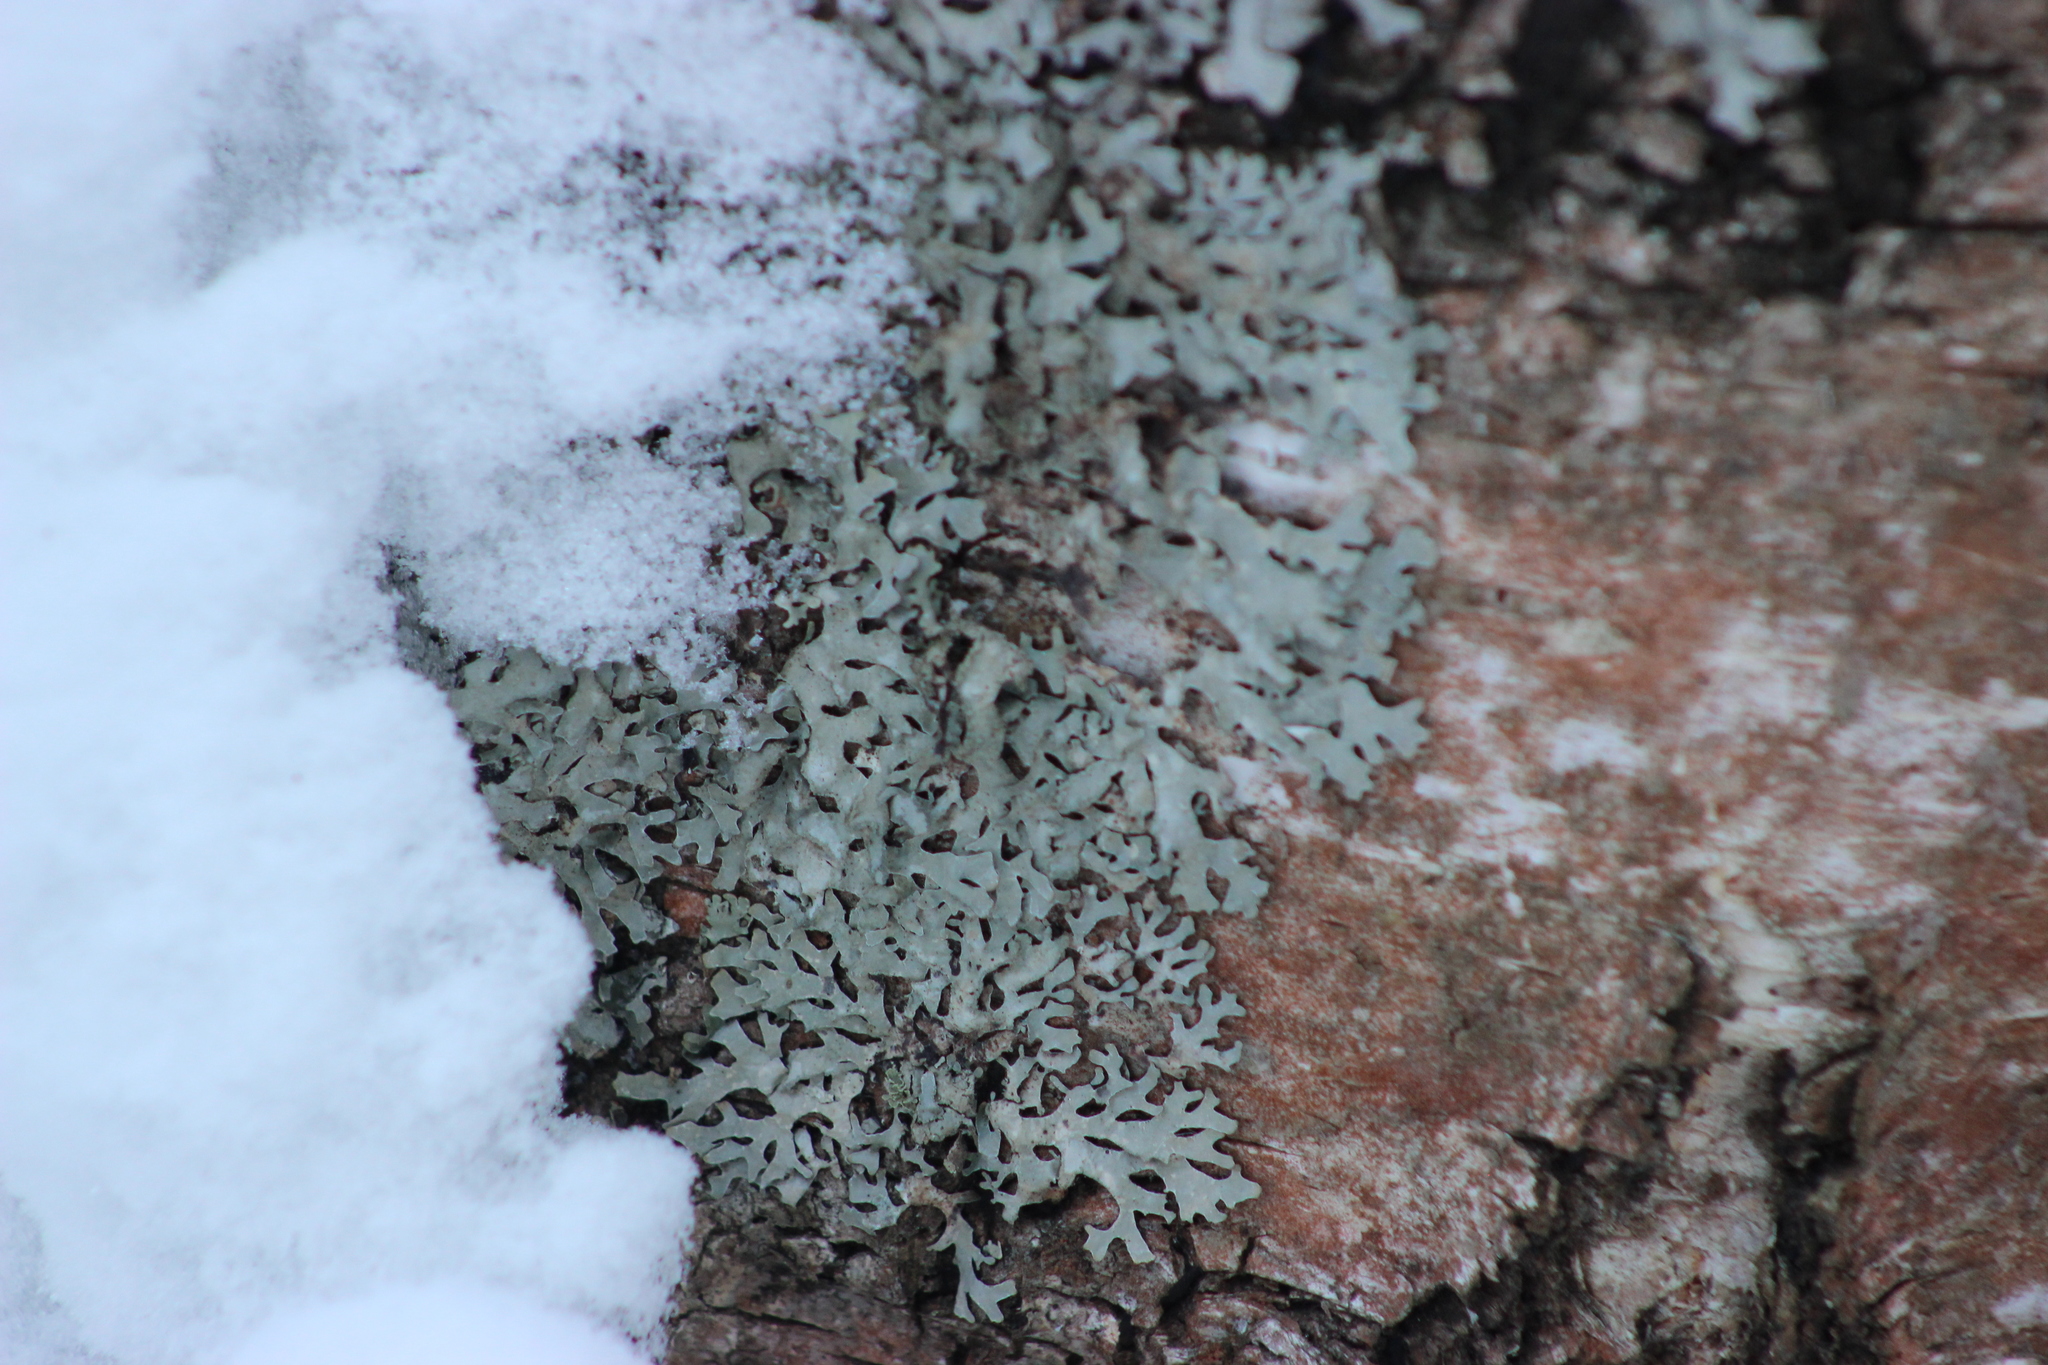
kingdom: Fungi
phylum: Ascomycota
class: Lecanoromycetes
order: Lecanorales
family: Parmeliaceae
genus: Parmelia
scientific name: Parmelia sulcata
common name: Netted shield lichen
